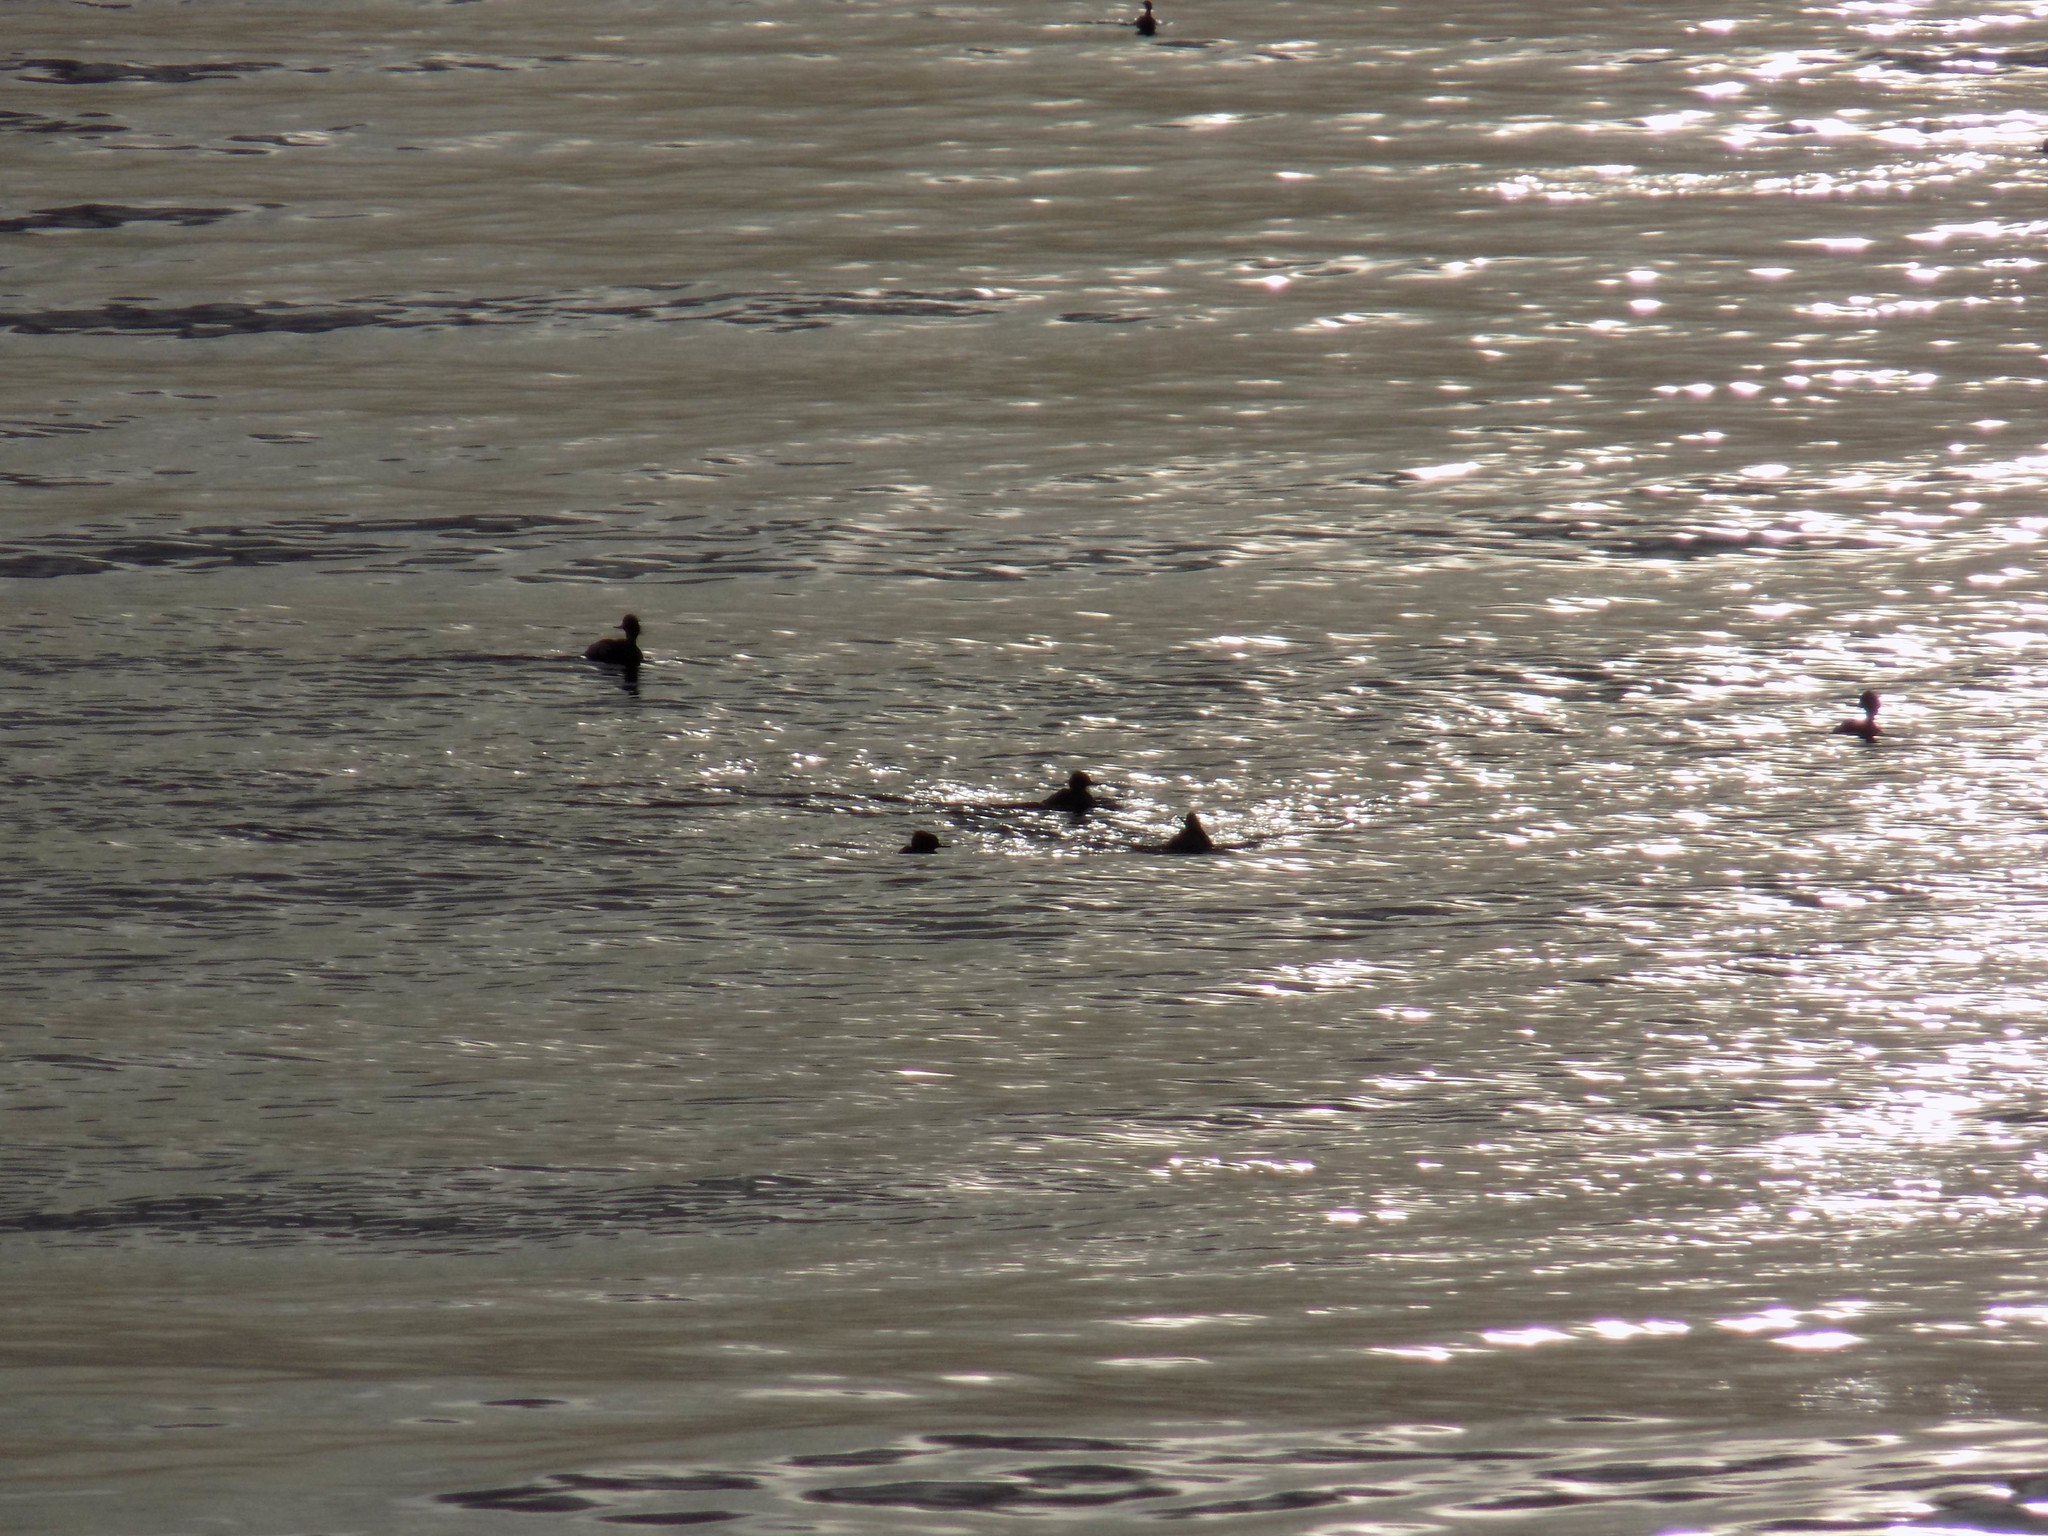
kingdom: Animalia
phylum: Chordata
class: Aves
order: Anseriformes
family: Anatidae
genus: Mergus
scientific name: Mergus serrator
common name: Red-breasted merganser
